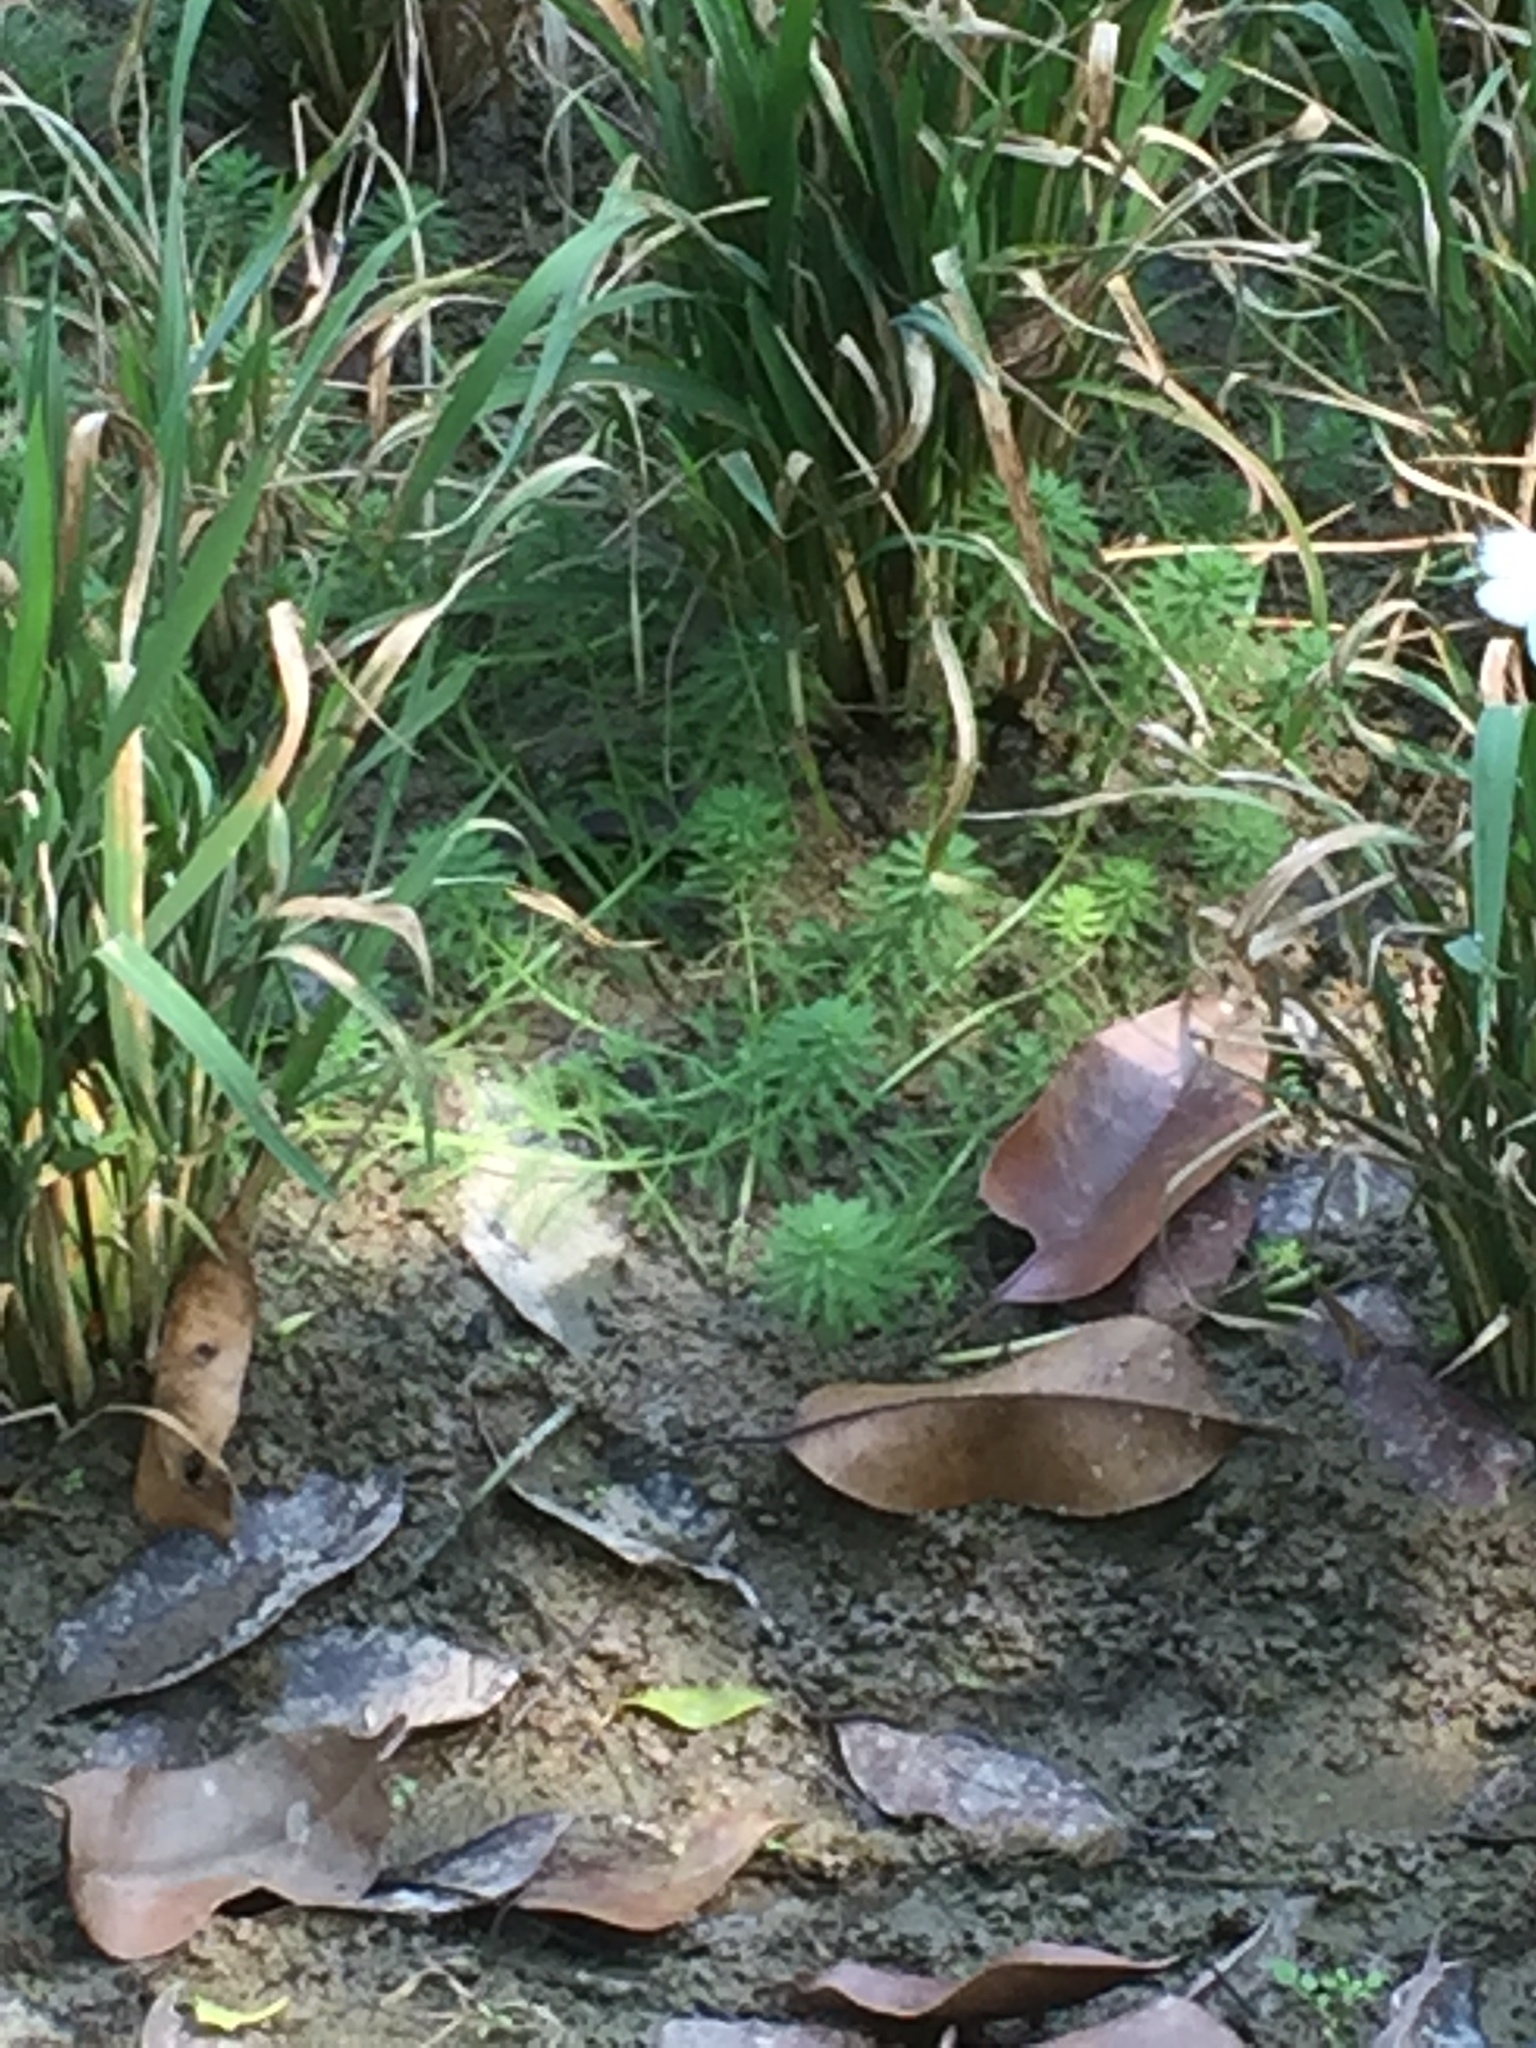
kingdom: Plantae
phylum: Tracheophyta
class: Magnoliopsida
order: Saxifragales
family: Haloragaceae
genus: Myriophyllum
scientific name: Myriophyllum aquaticum
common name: Parrot's feather
